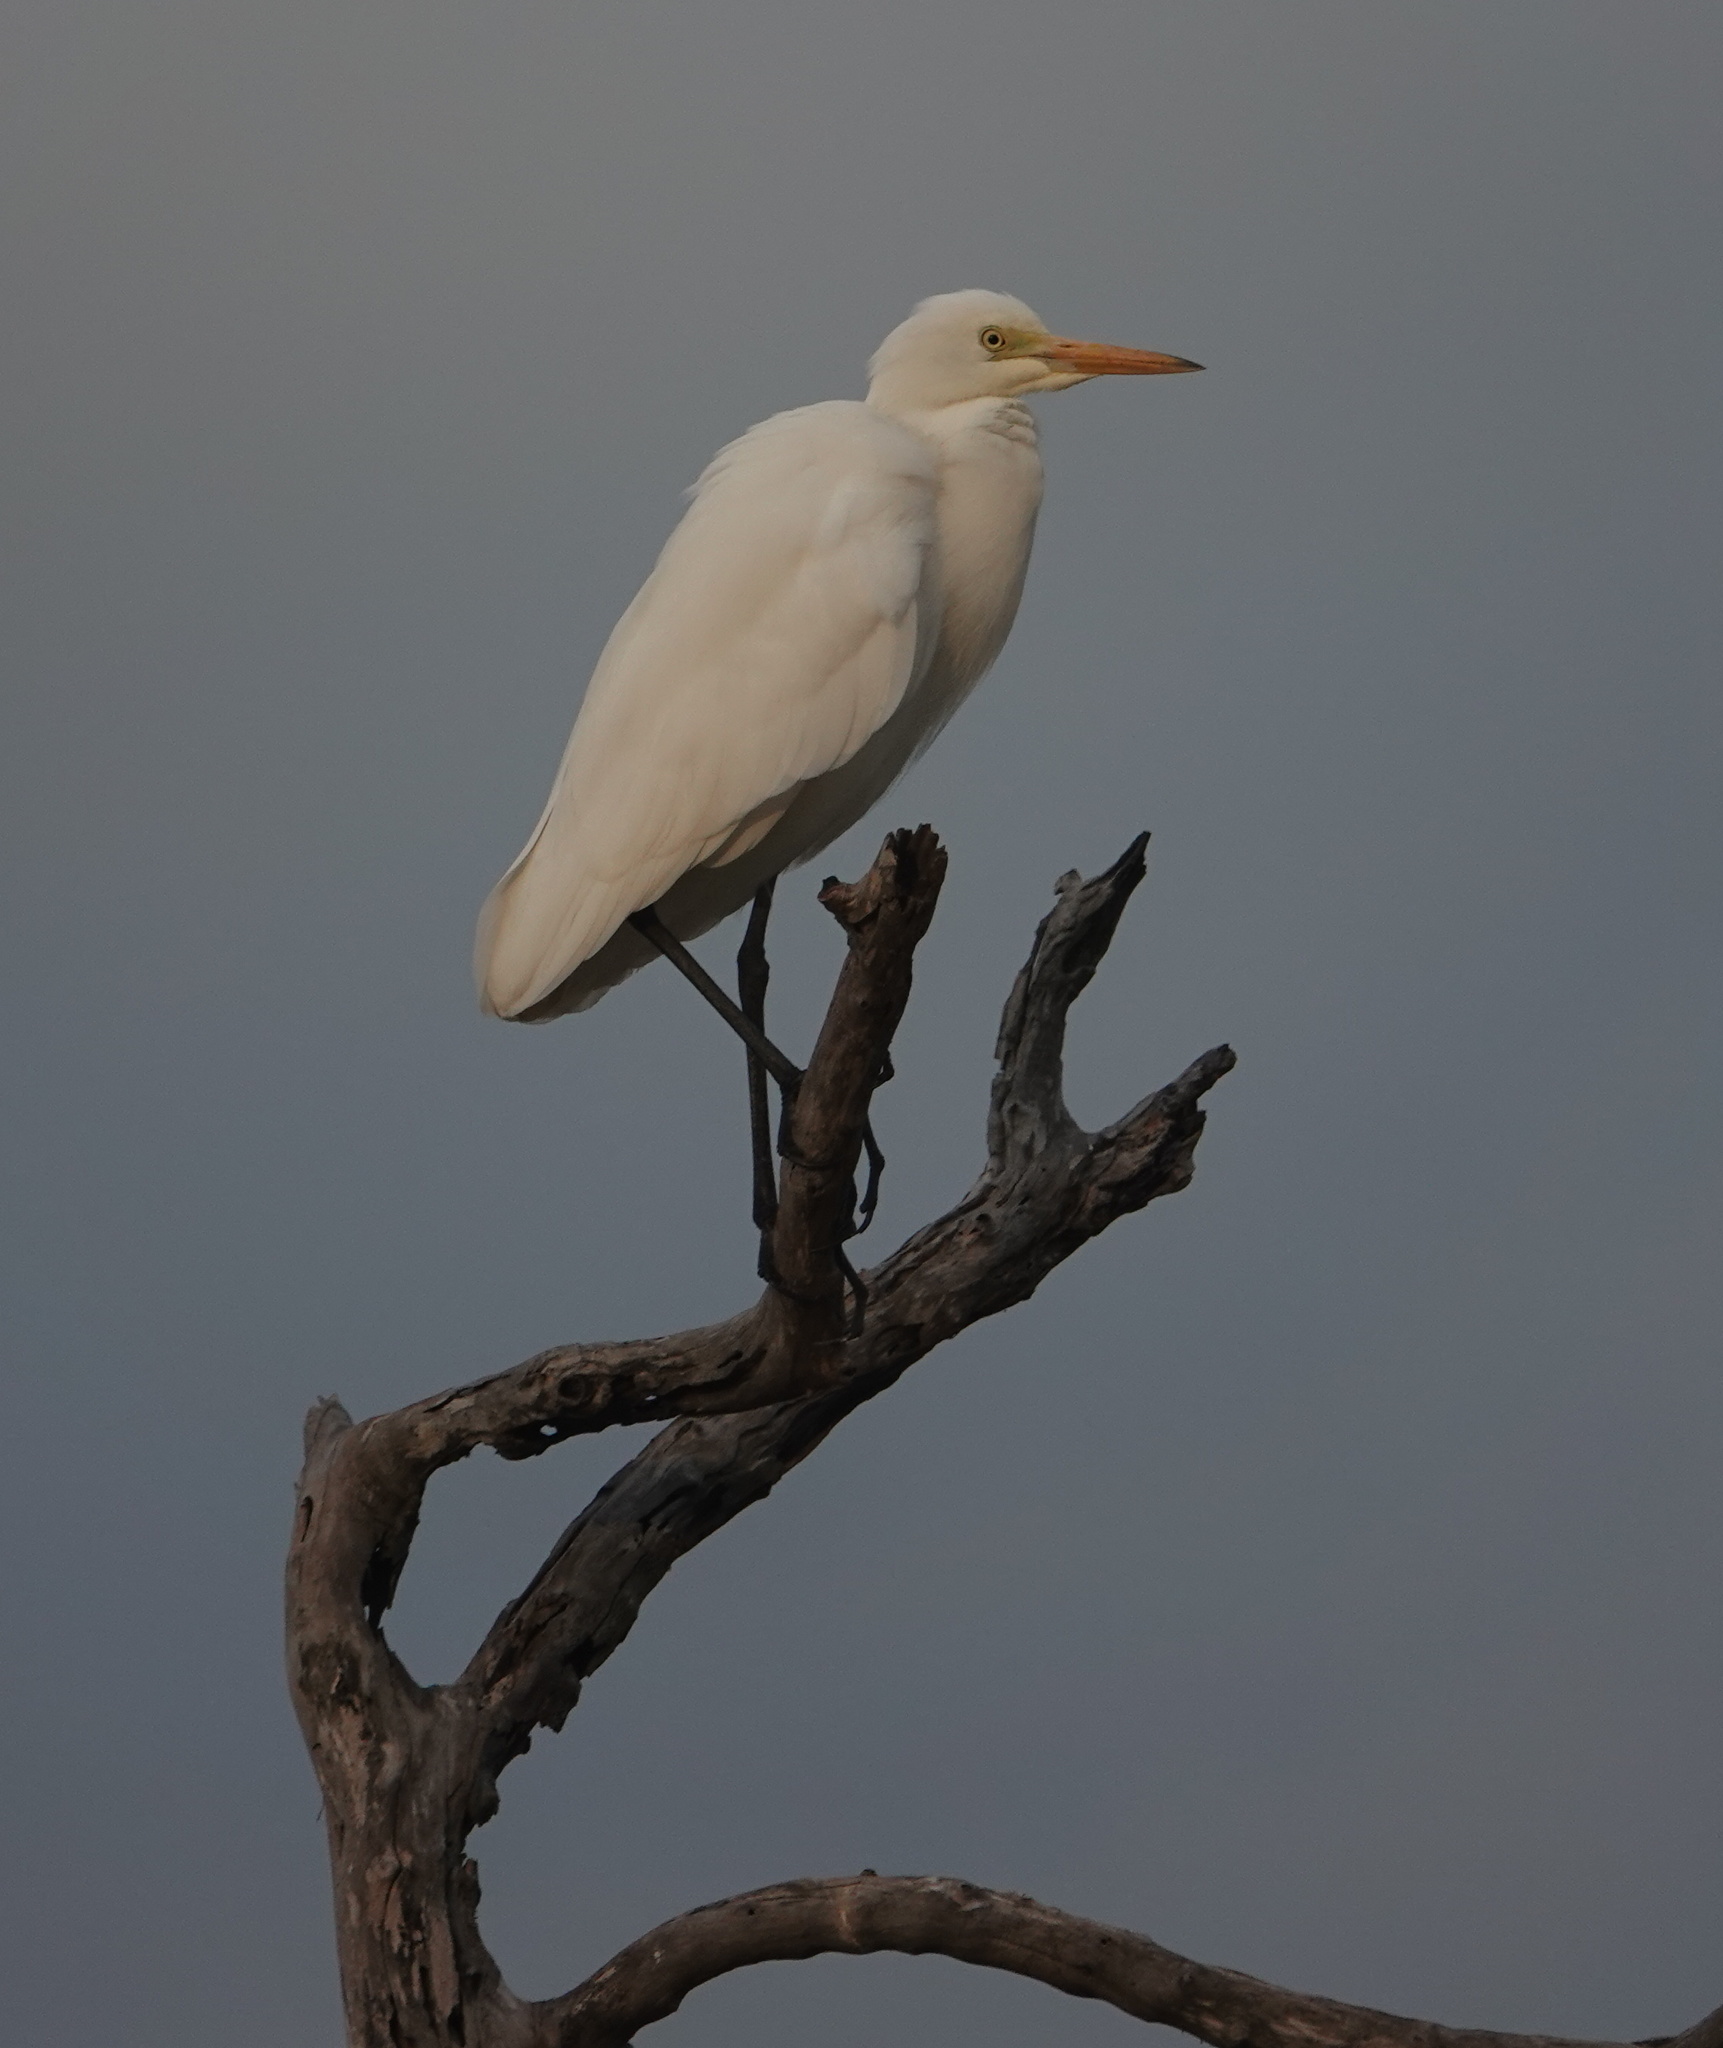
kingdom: Animalia
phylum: Chordata
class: Aves
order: Pelecaniformes
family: Ardeidae
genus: Bubulcus
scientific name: Bubulcus coromandus
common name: Eastern cattle egret
